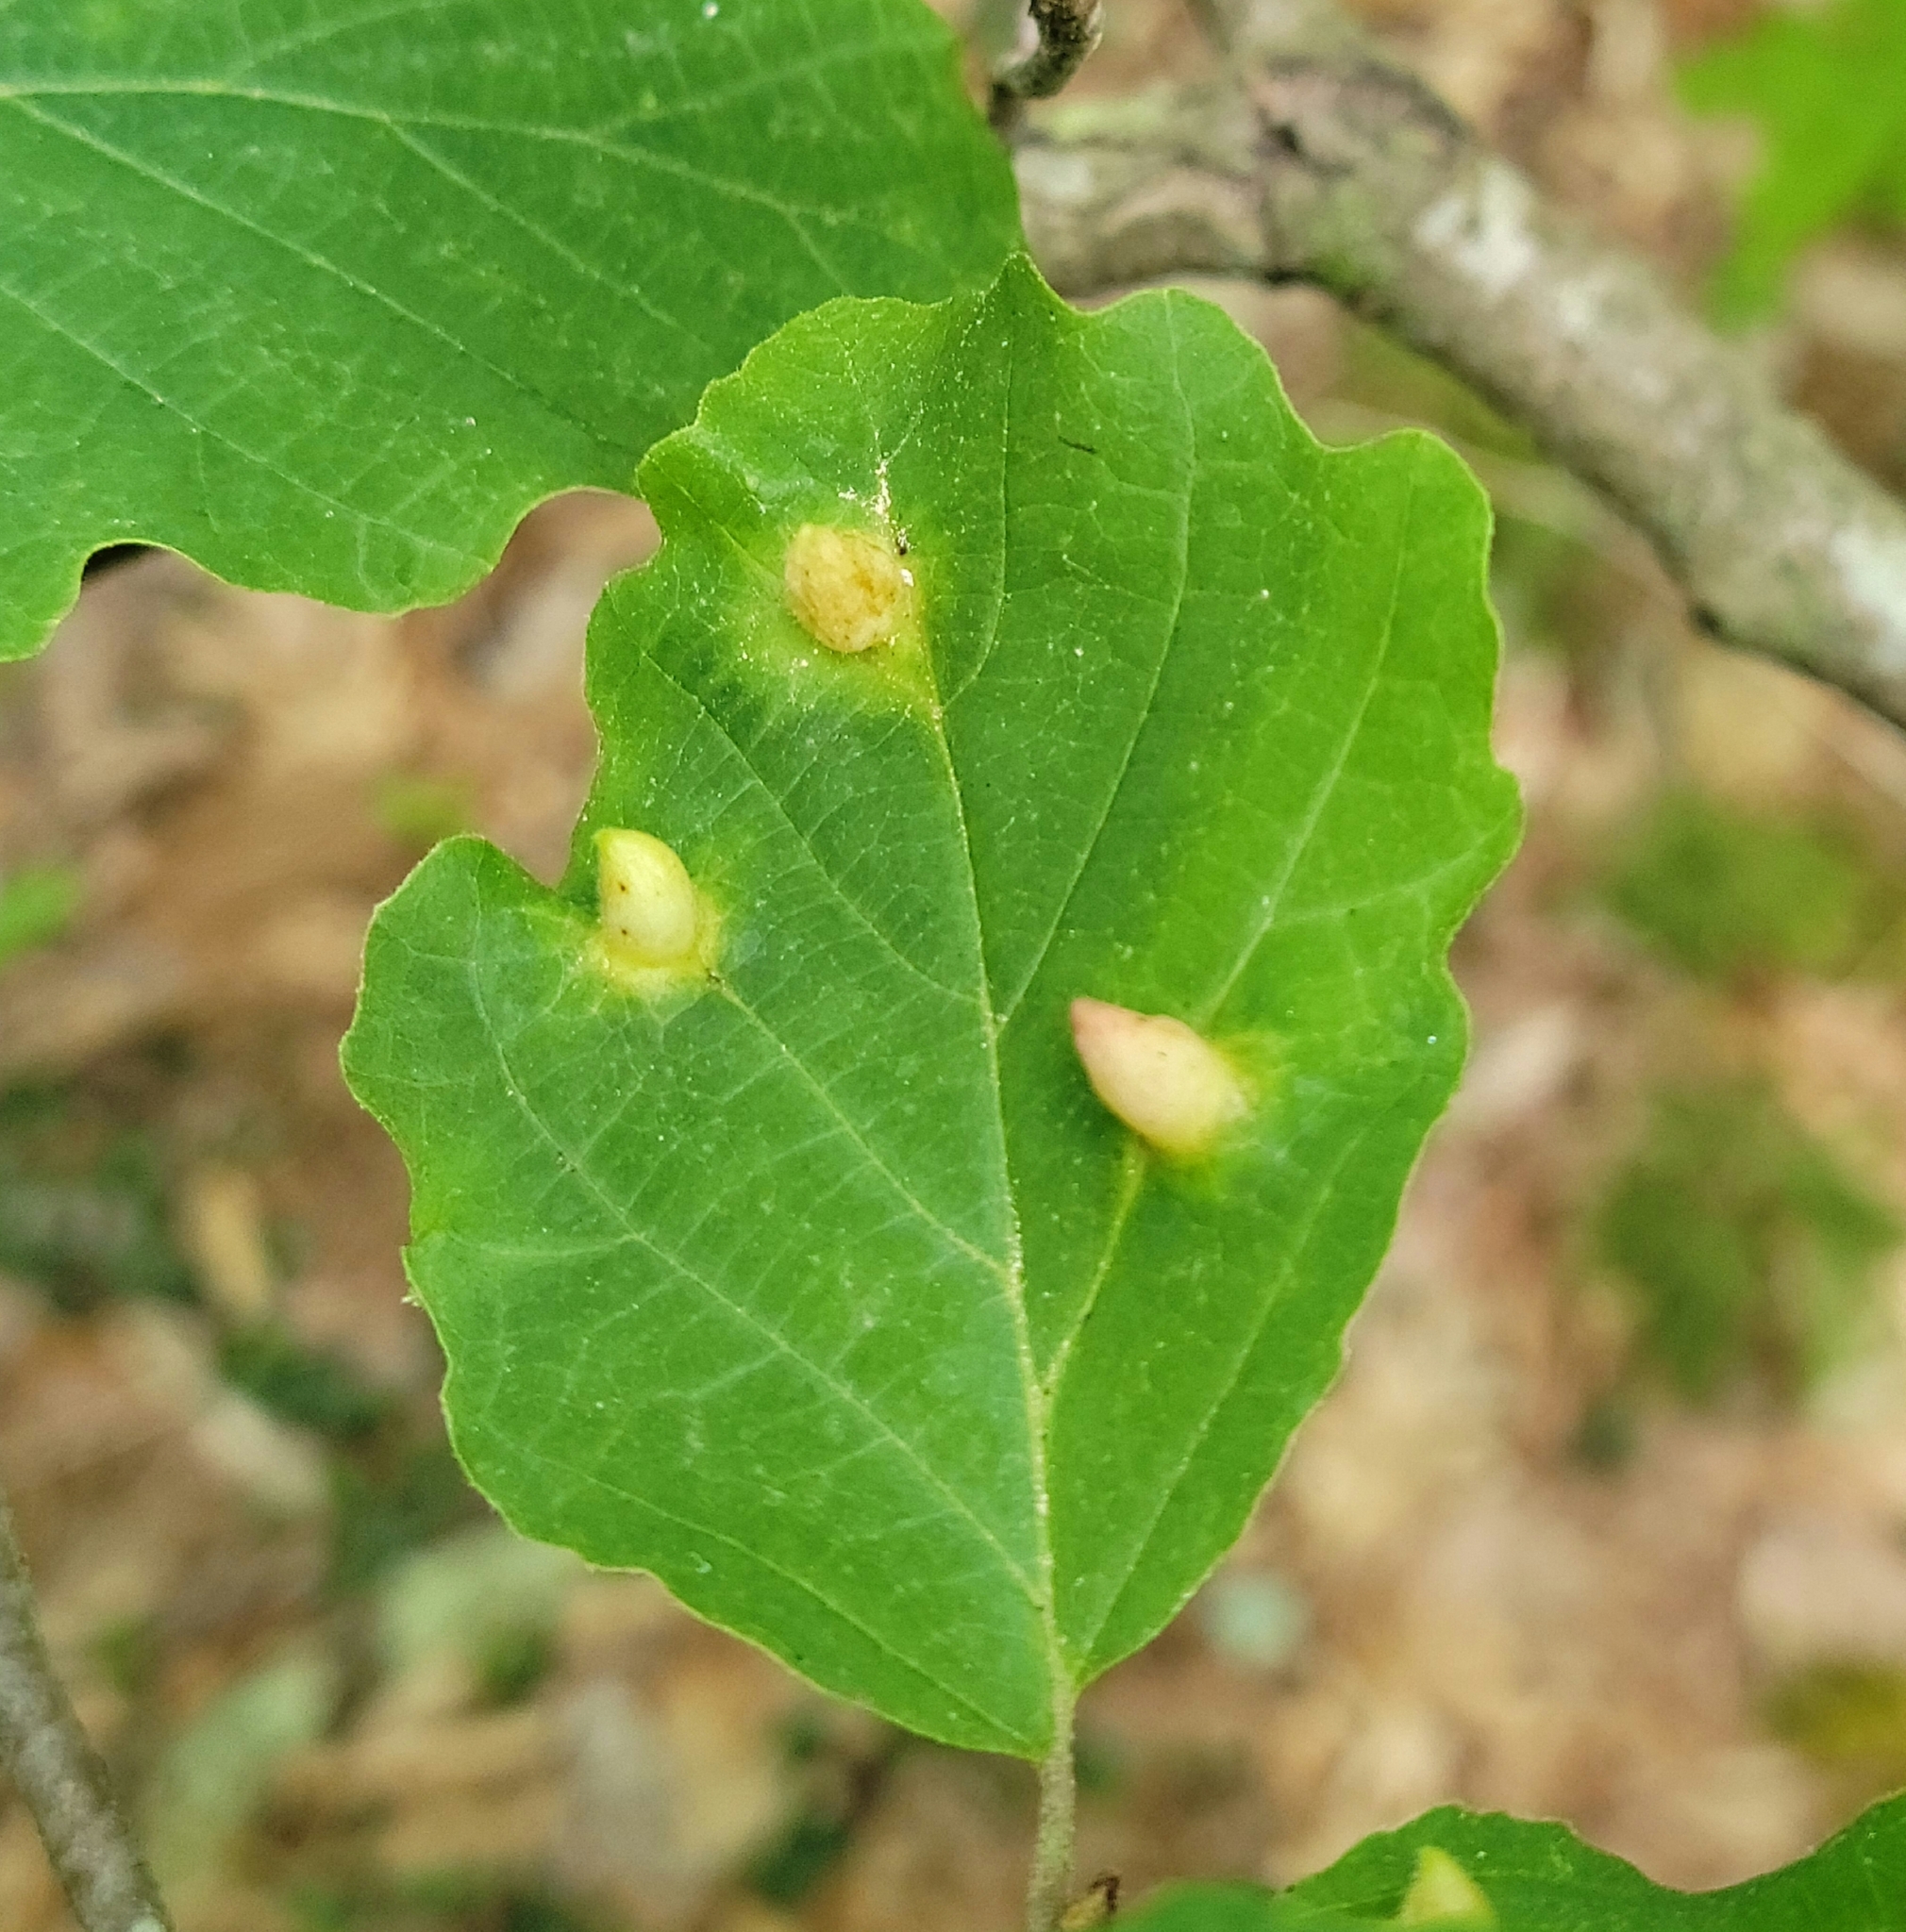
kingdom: Animalia
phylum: Arthropoda
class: Insecta
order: Hemiptera
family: Aphididae
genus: Hormaphis
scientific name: Hormaphis hamamelidis
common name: Witch-hazel cone gall aphid
